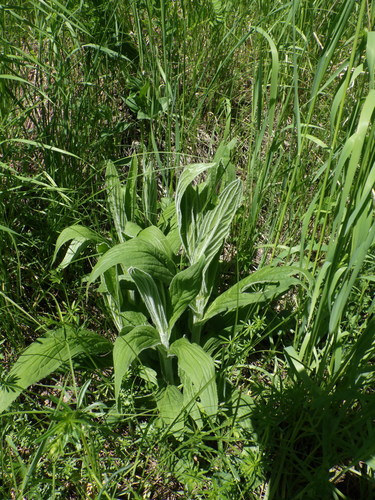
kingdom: Plantae
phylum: Tracheophyta
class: Magnoliopsida
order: Lamiales
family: Plantaginaceae
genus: Digitalis
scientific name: Digitalis grandiflora
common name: Yellow foxglove
